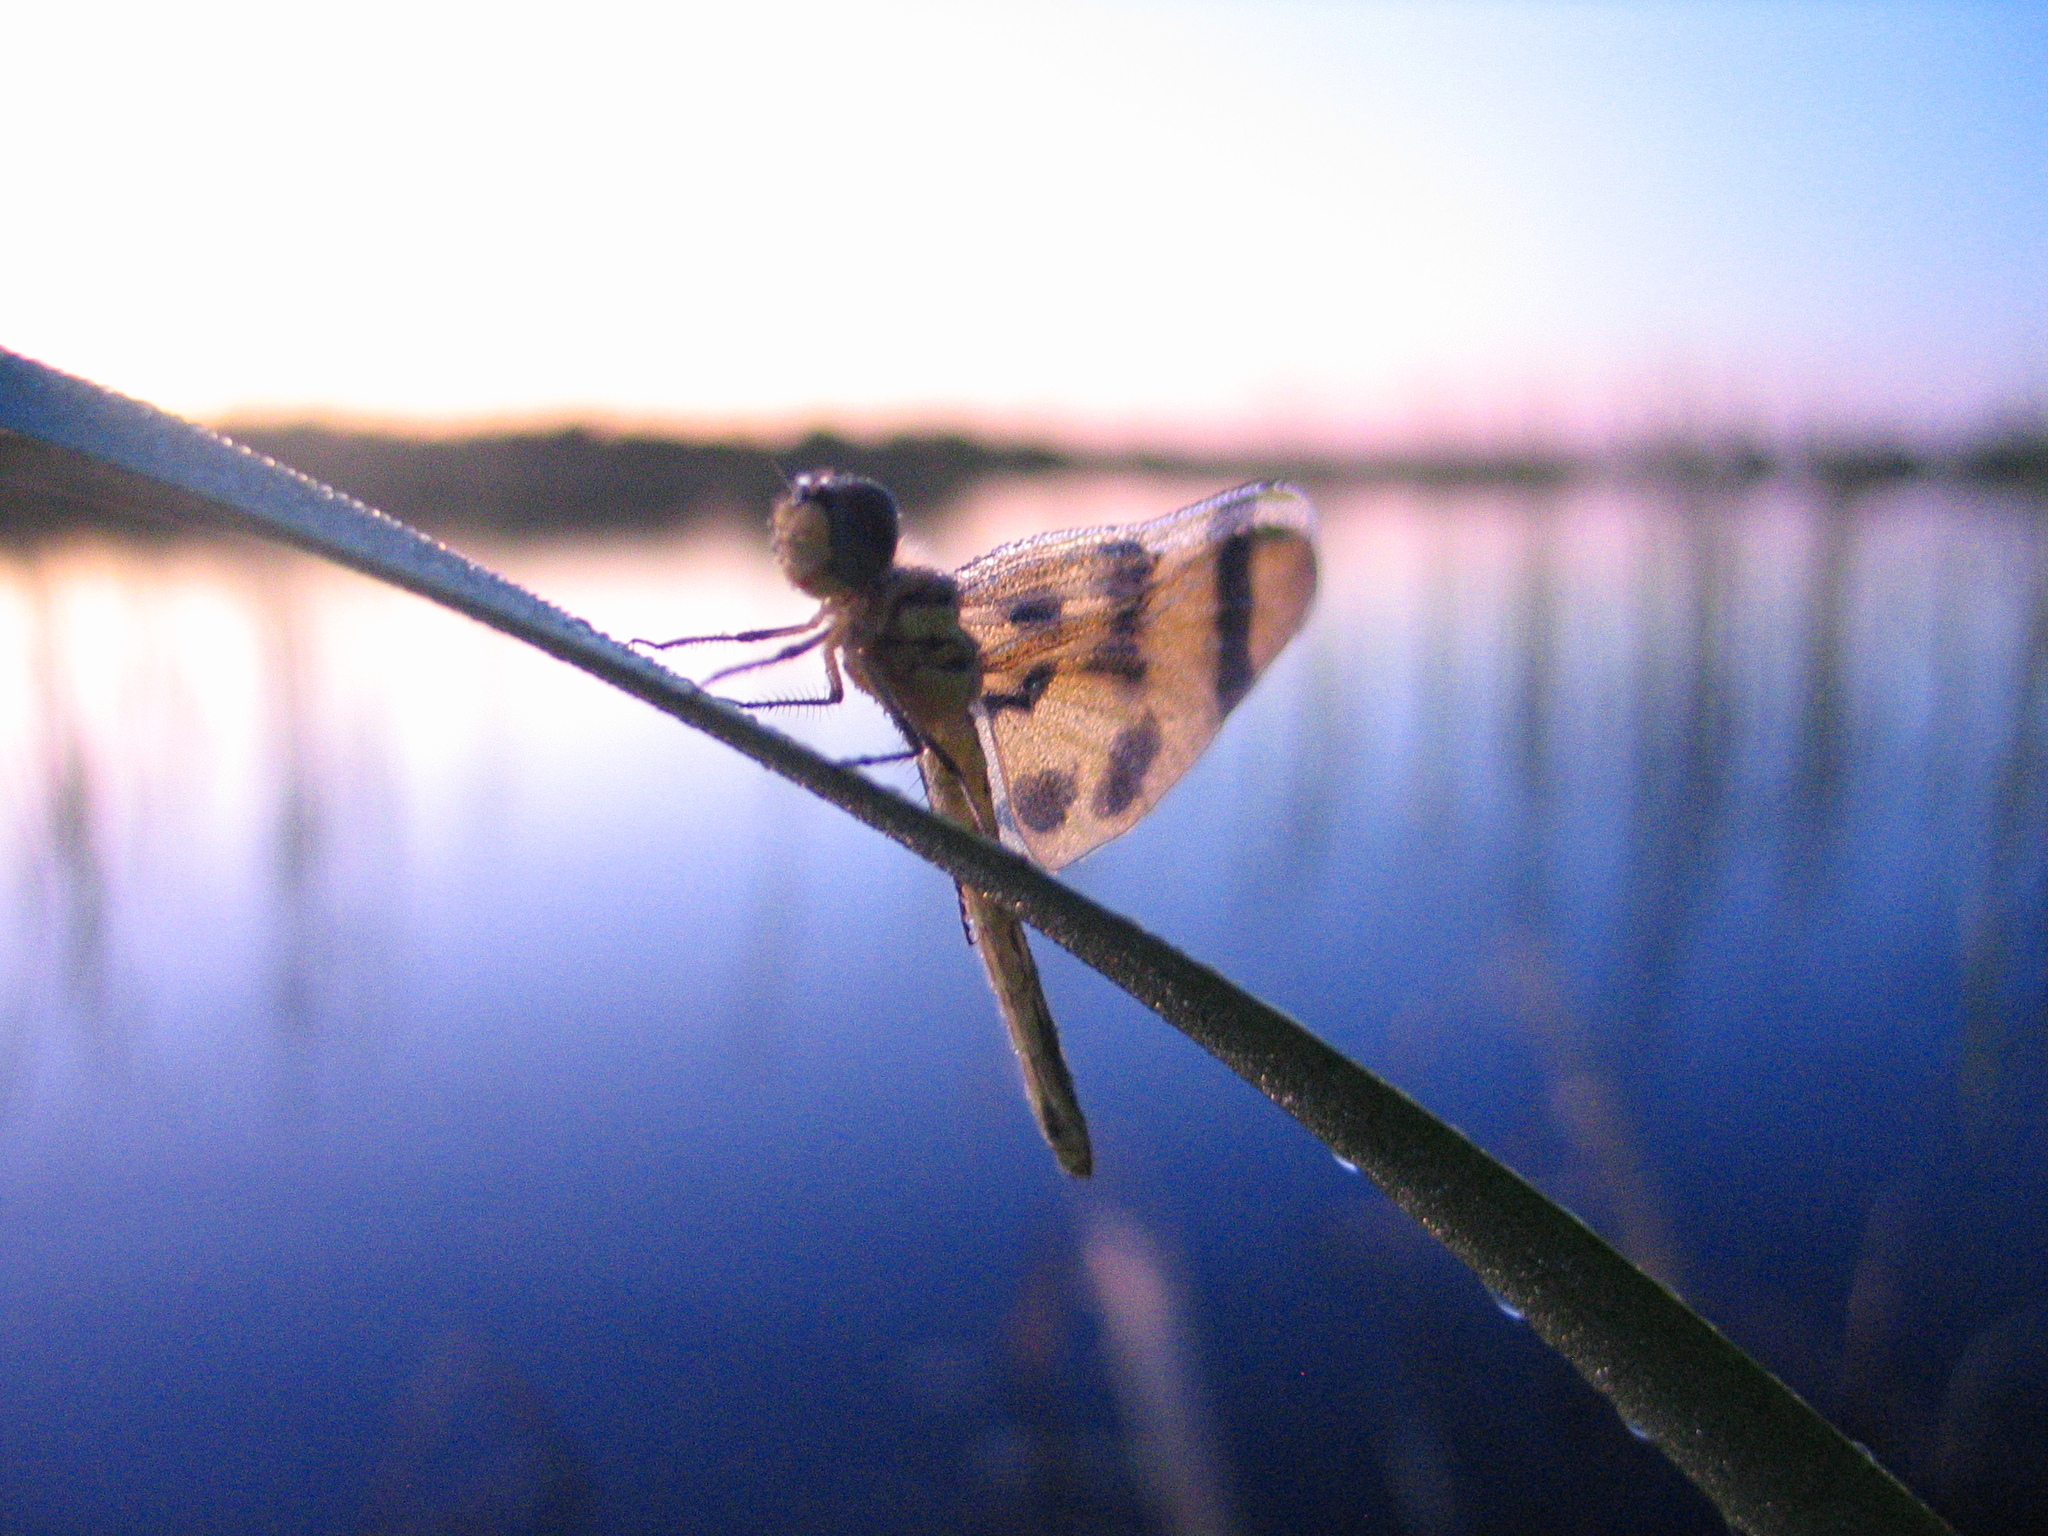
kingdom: Animalia
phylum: Arthropoda
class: Insecta
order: Odonata
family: Libellulidae
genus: Celithemis
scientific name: Celithemis eponina
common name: Halloween pennant
